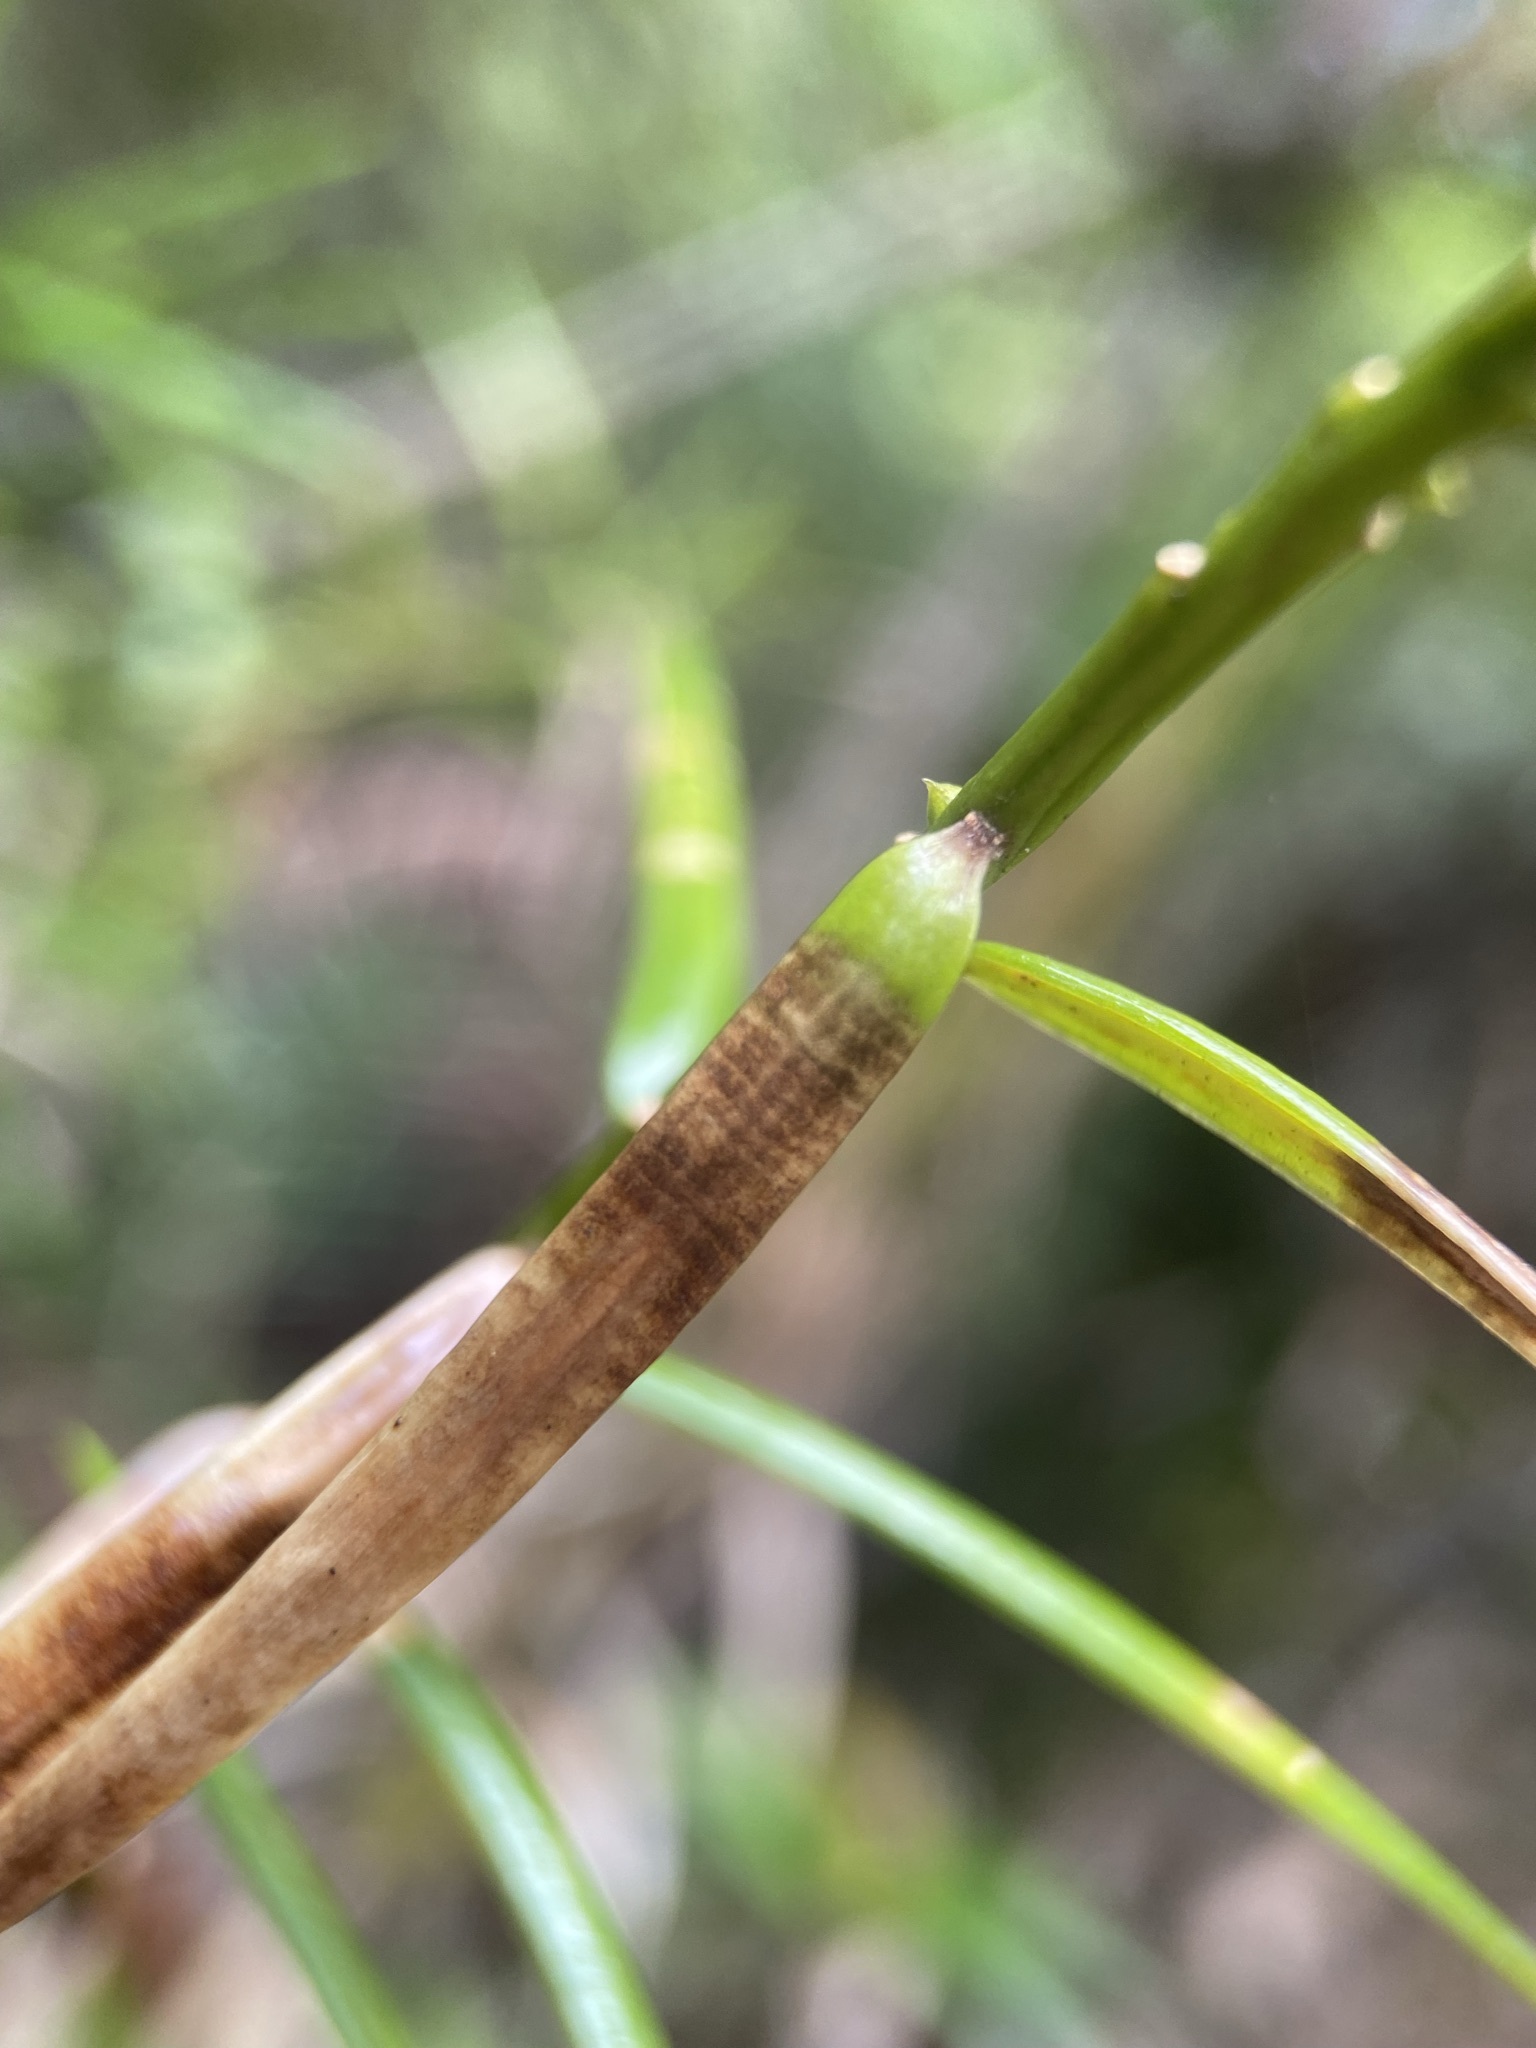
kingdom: Plantae
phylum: Tracheophyta
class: Pinopsida
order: Pinales
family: Taxaceae
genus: Torreya
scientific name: Torreya taxifolia
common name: Florida torreya
